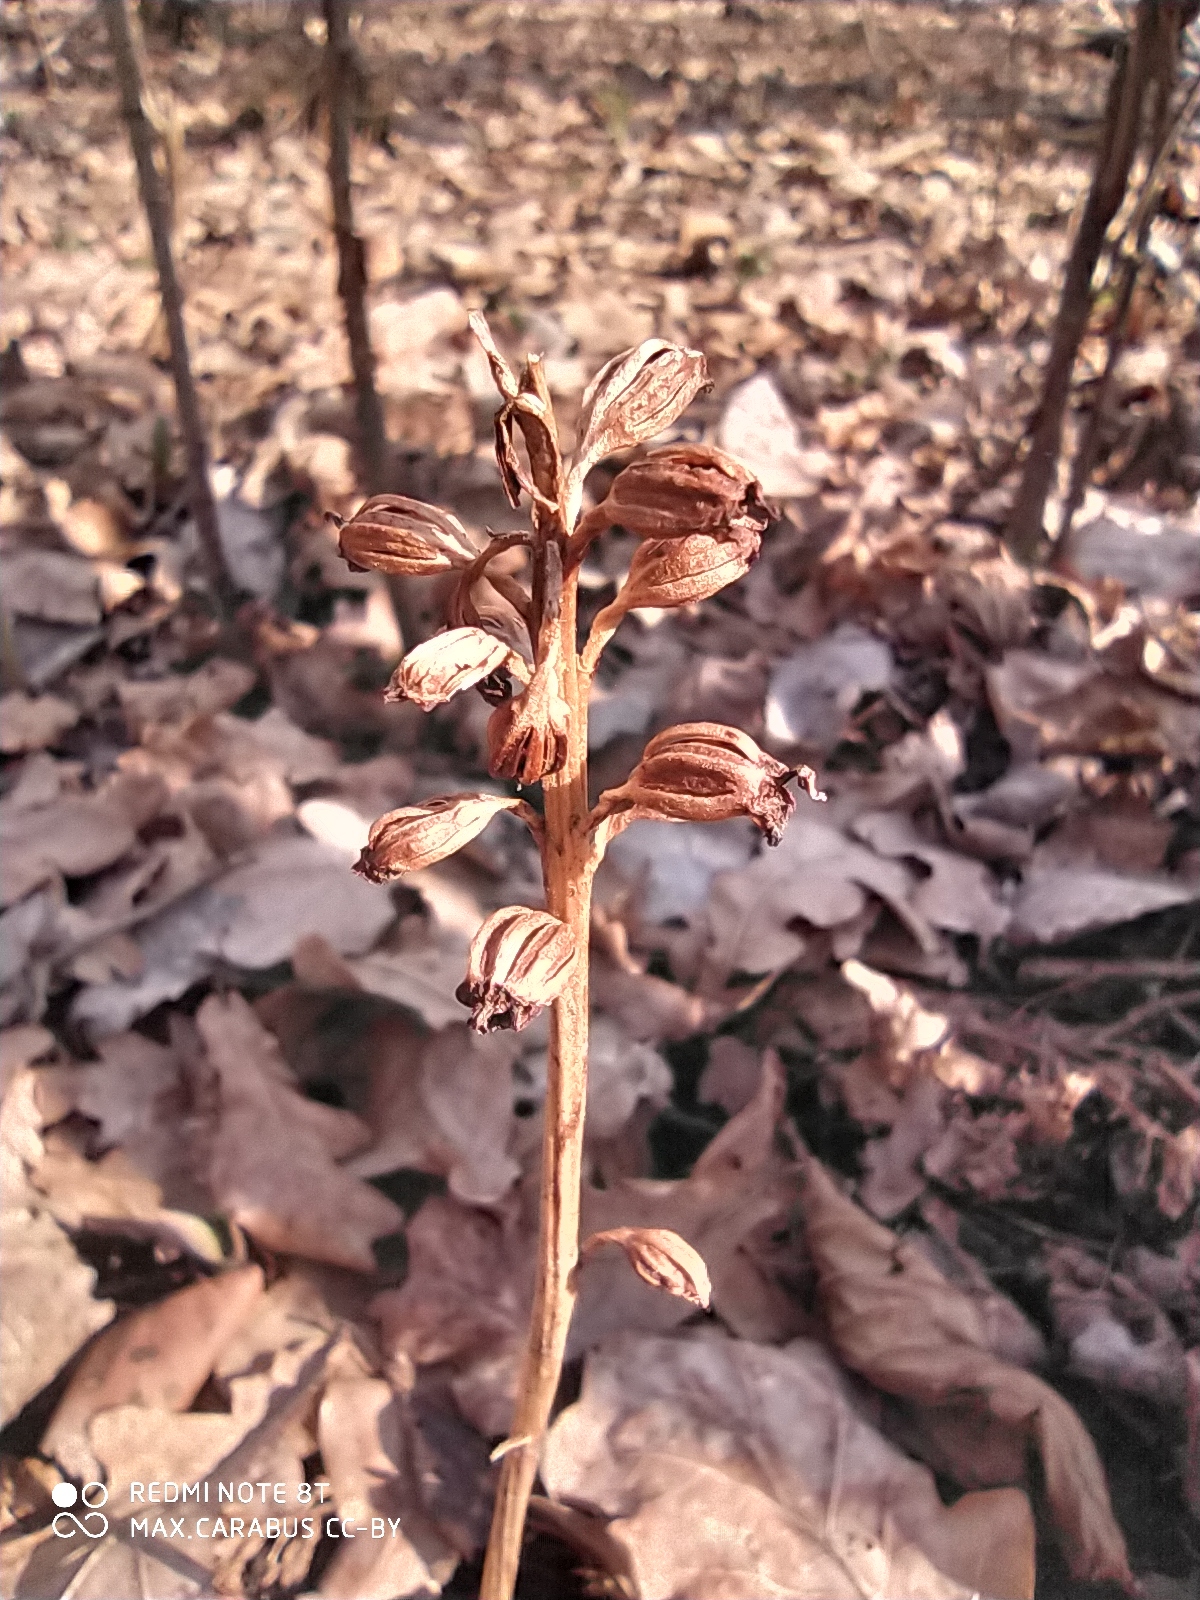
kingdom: Plantae
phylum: Tracheophyta
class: Liliopsida
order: Asparagales
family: Orchidaceae
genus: Neottia
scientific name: Neottia nidus-avis
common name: Bird's-nest orchid
